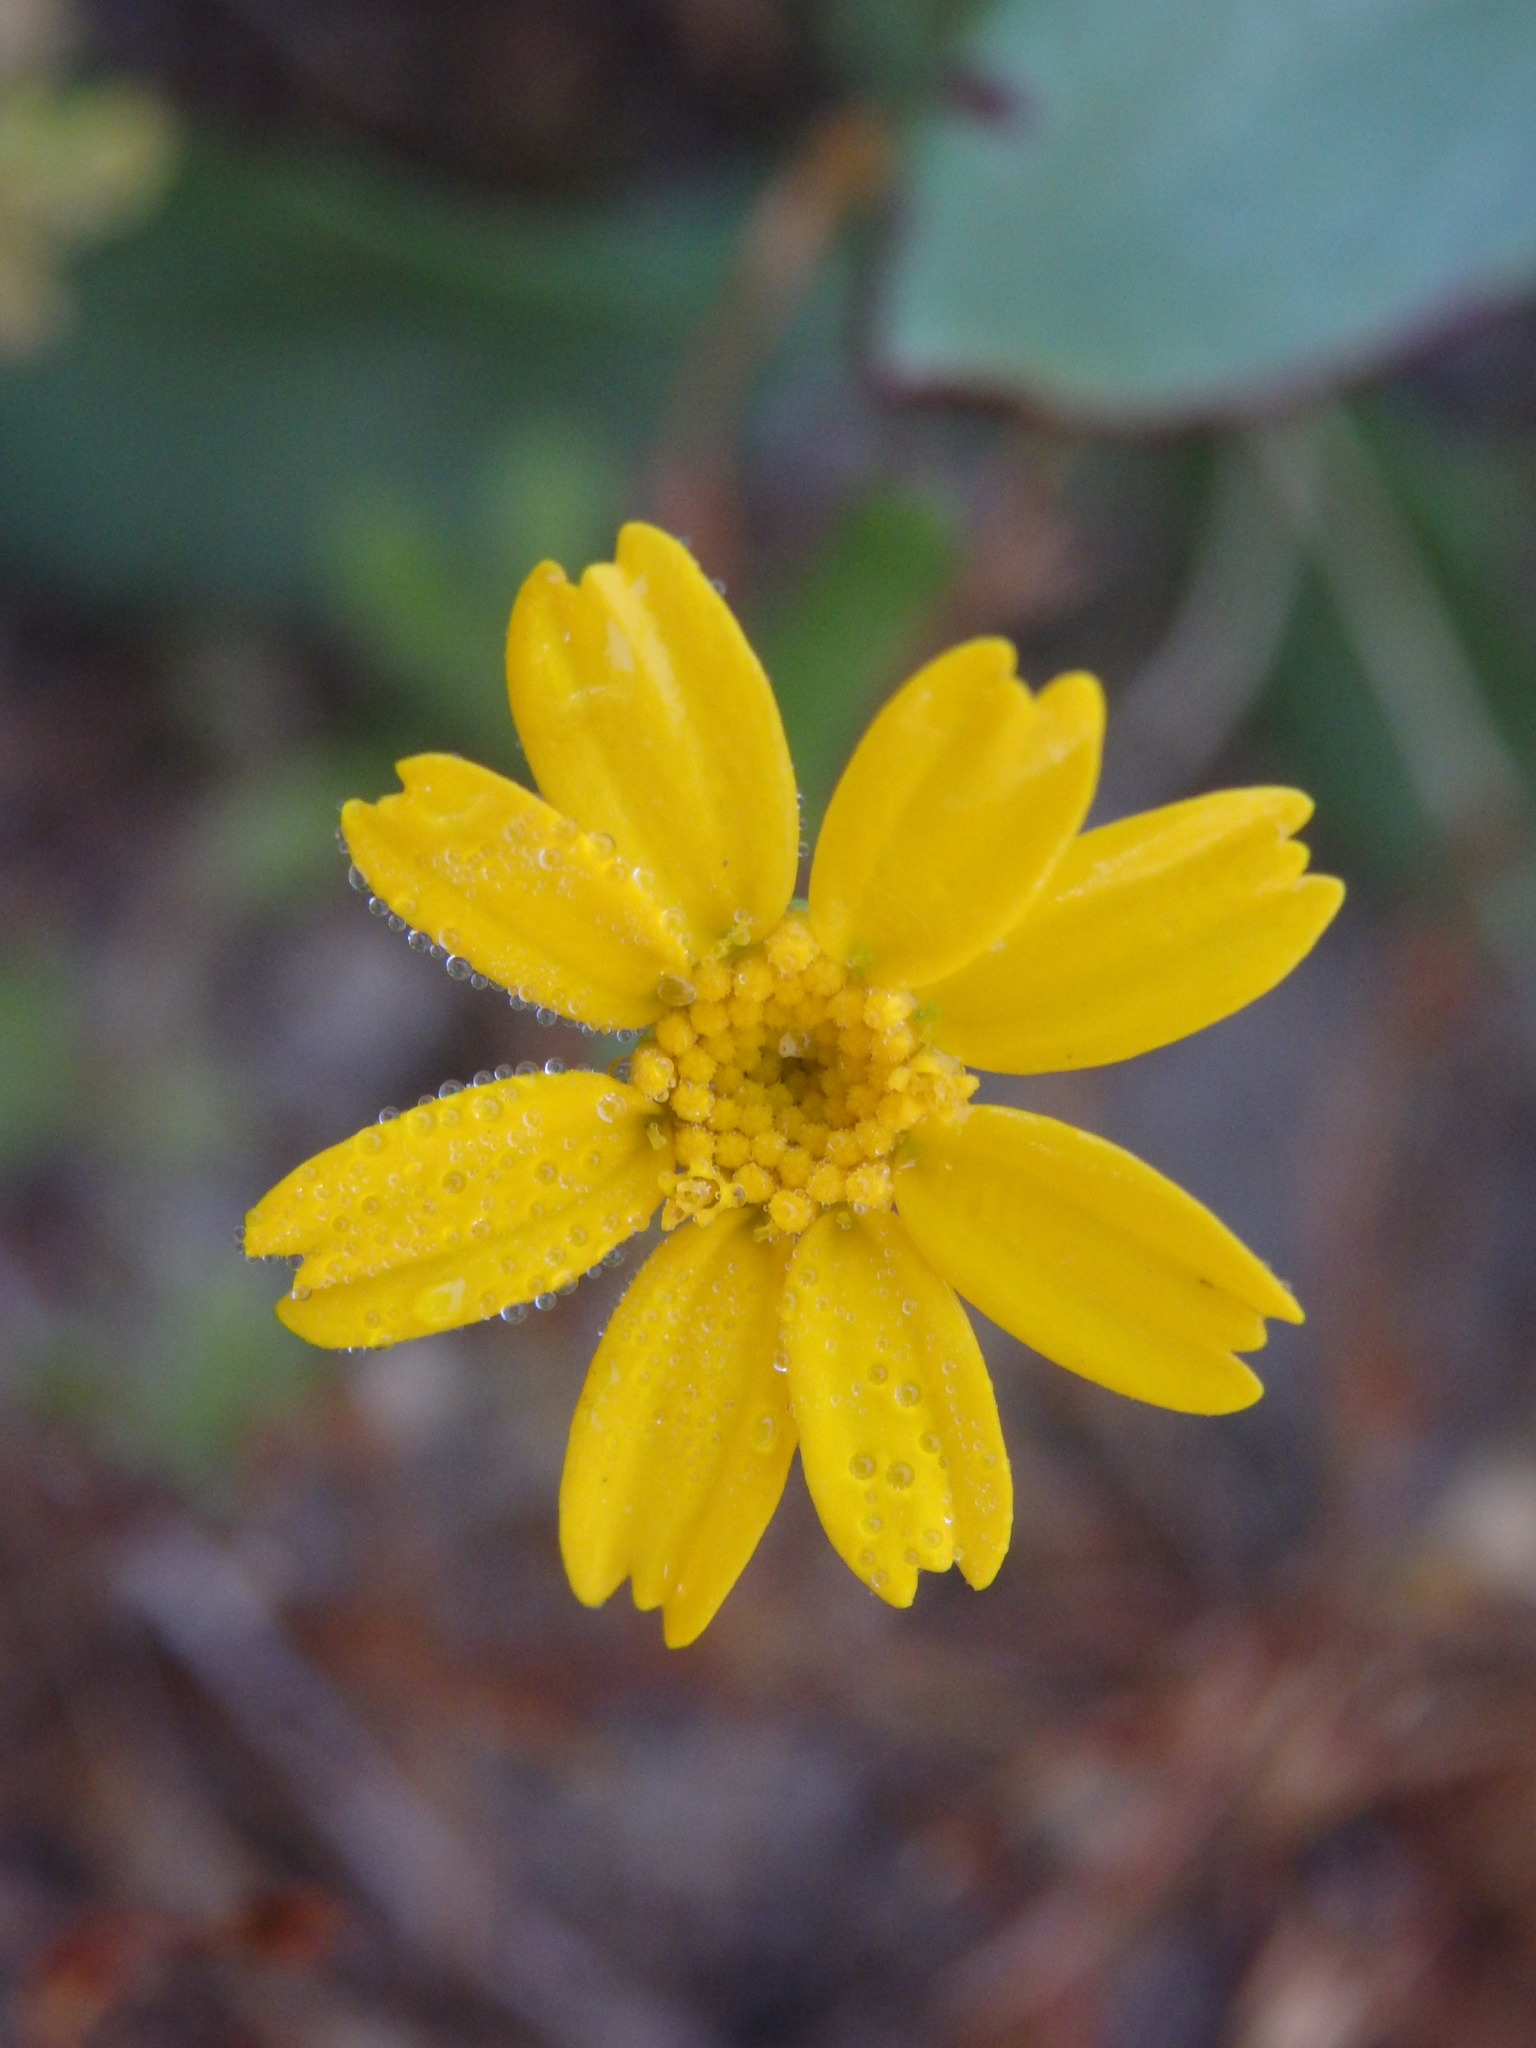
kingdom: Plantae
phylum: Tracheophyta
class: Magnoliopsida
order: Asterales
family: Asteraceae
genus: Coleostephus
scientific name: Coleostephus myconis
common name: Mediterranean marigold
